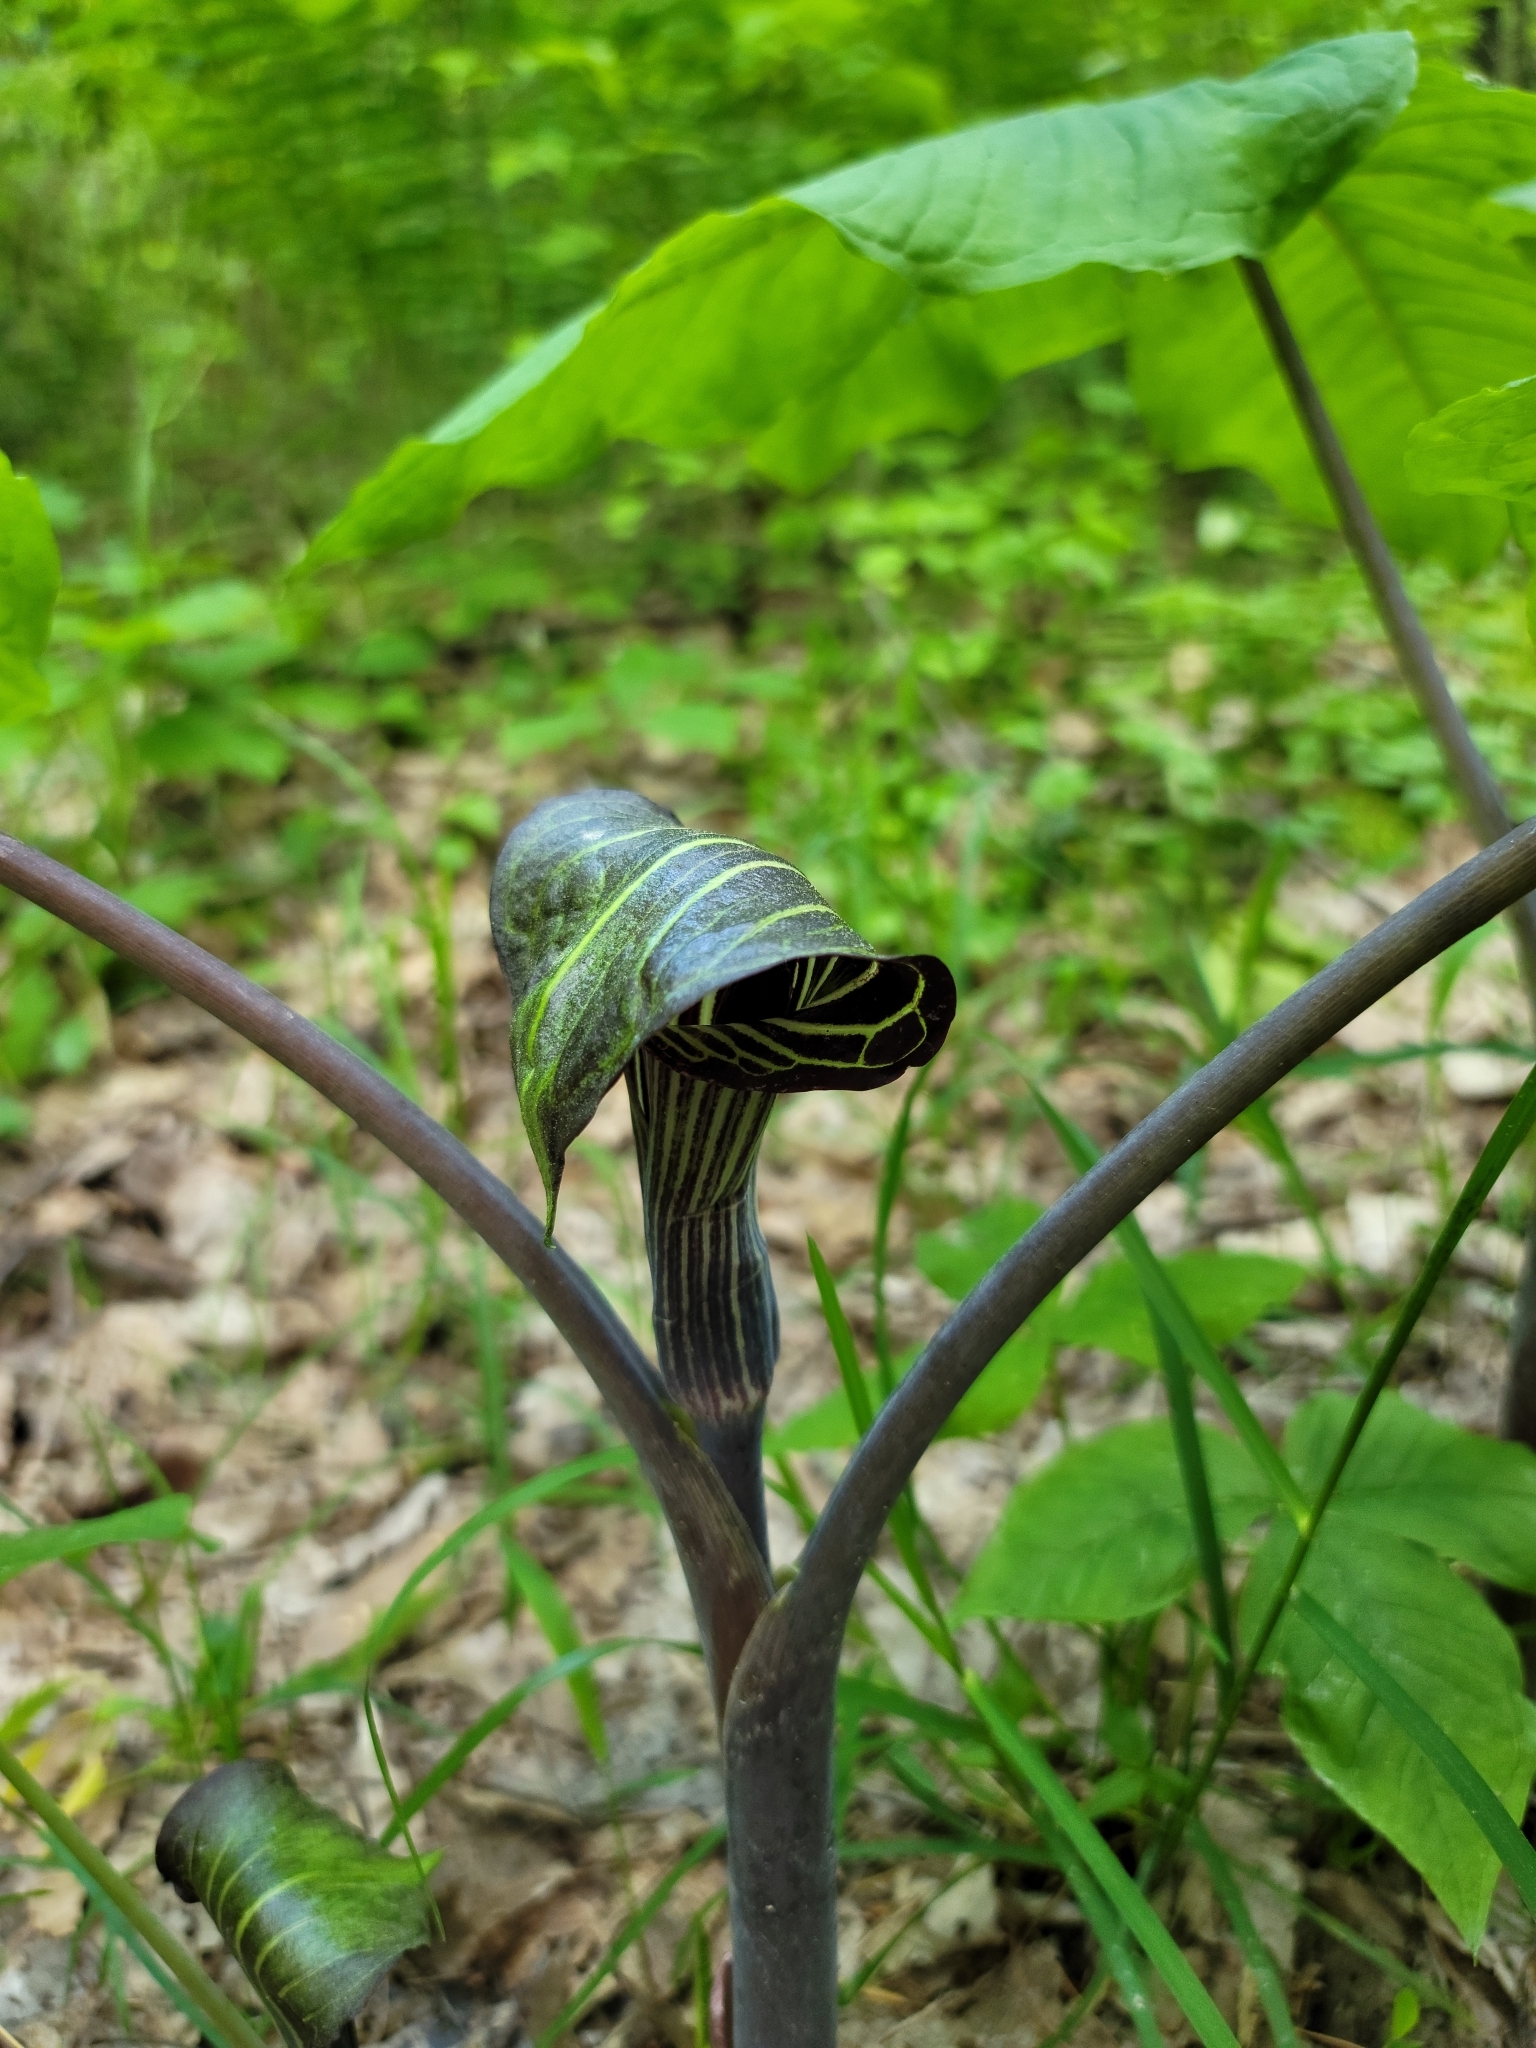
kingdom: Plantae
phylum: Tracheophyta
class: Liliopsida
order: Alismatales
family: Araceae
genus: Arisaema
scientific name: Arisaema triphyllum
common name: Jack-in-the-pulpit
